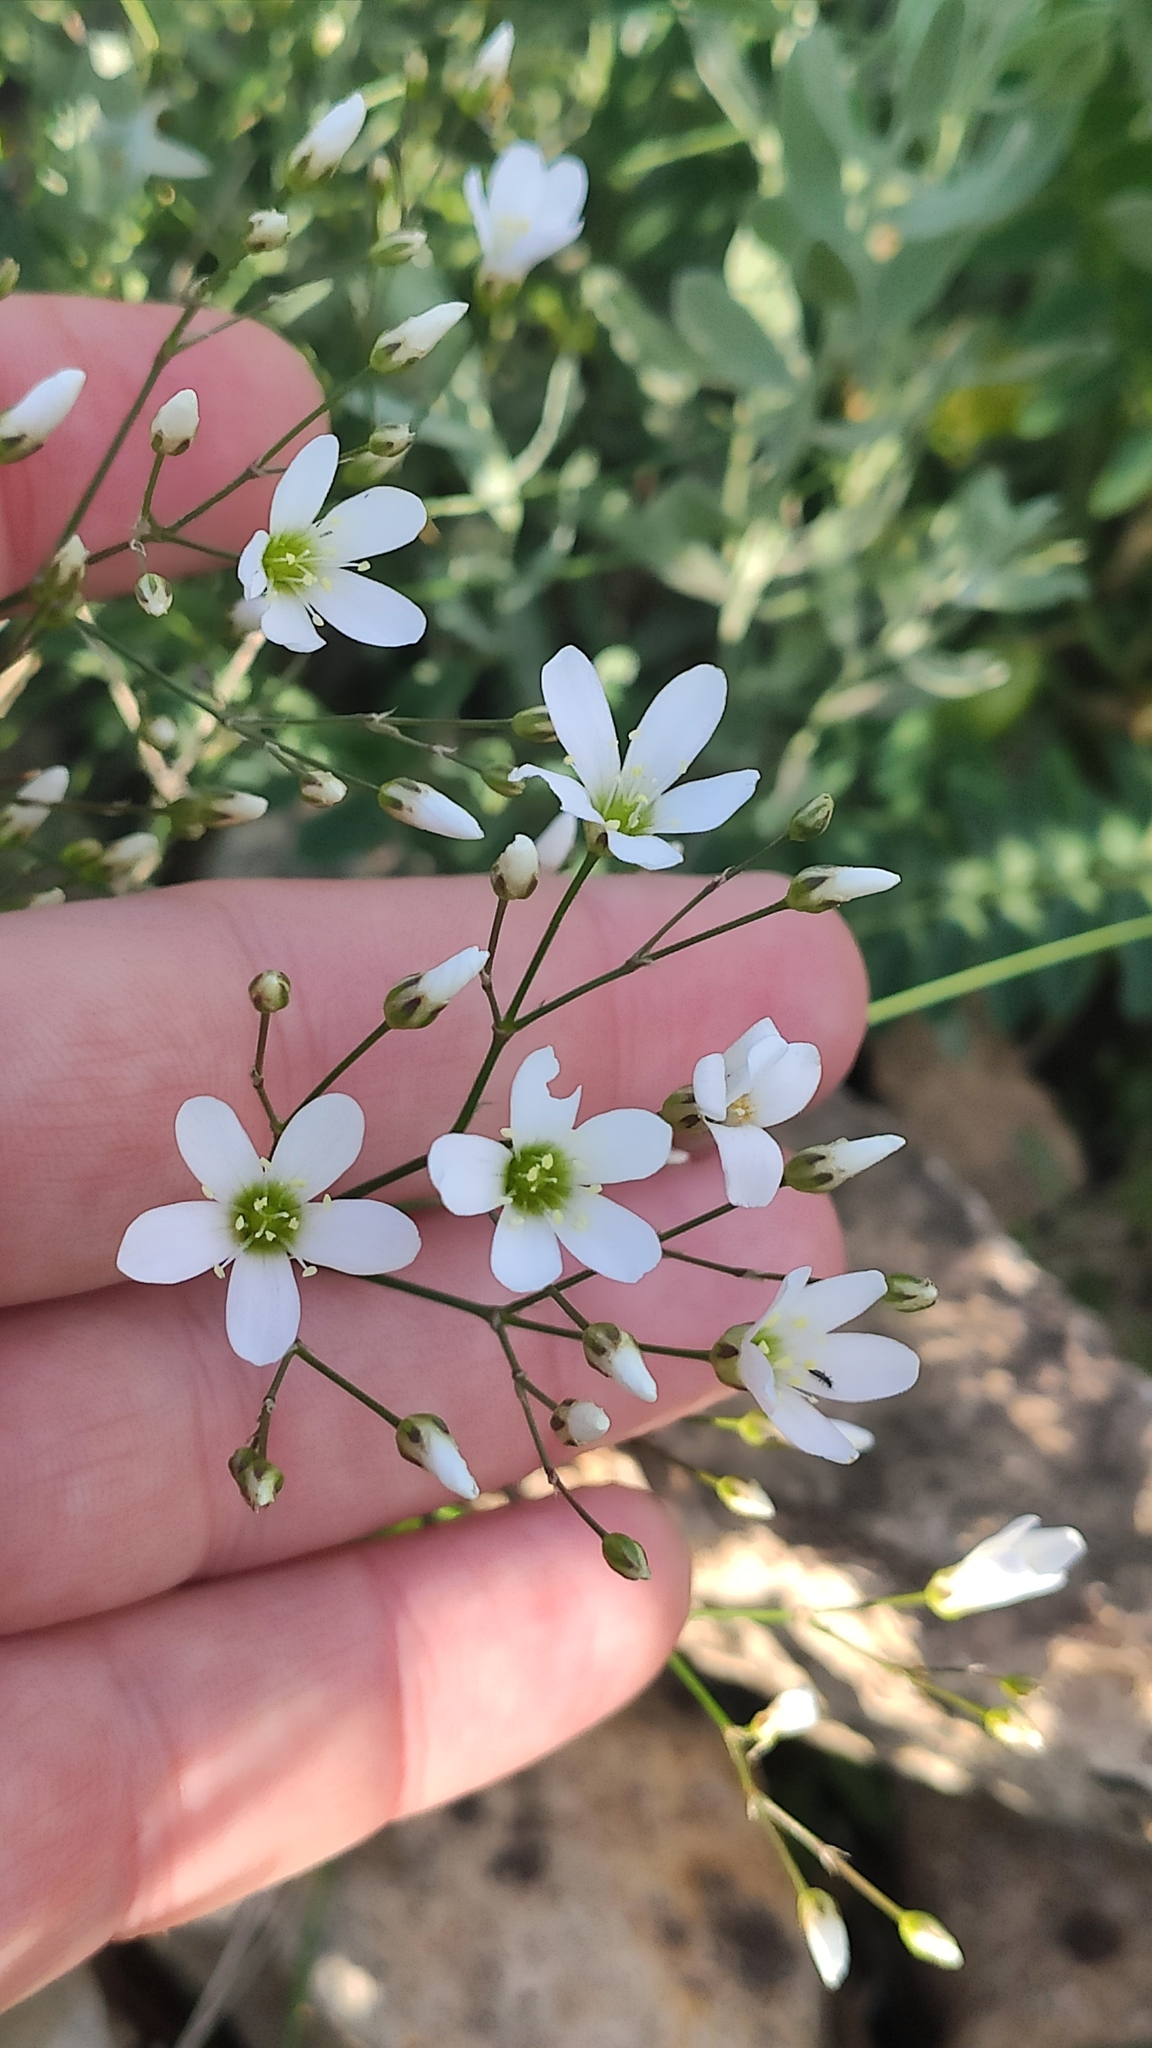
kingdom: Plantae
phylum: Tracheophyta
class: Magnoliopsida
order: Caryophyllales
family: Caryophyllaceae
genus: Eremogone
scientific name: Eremogone saxatilis
